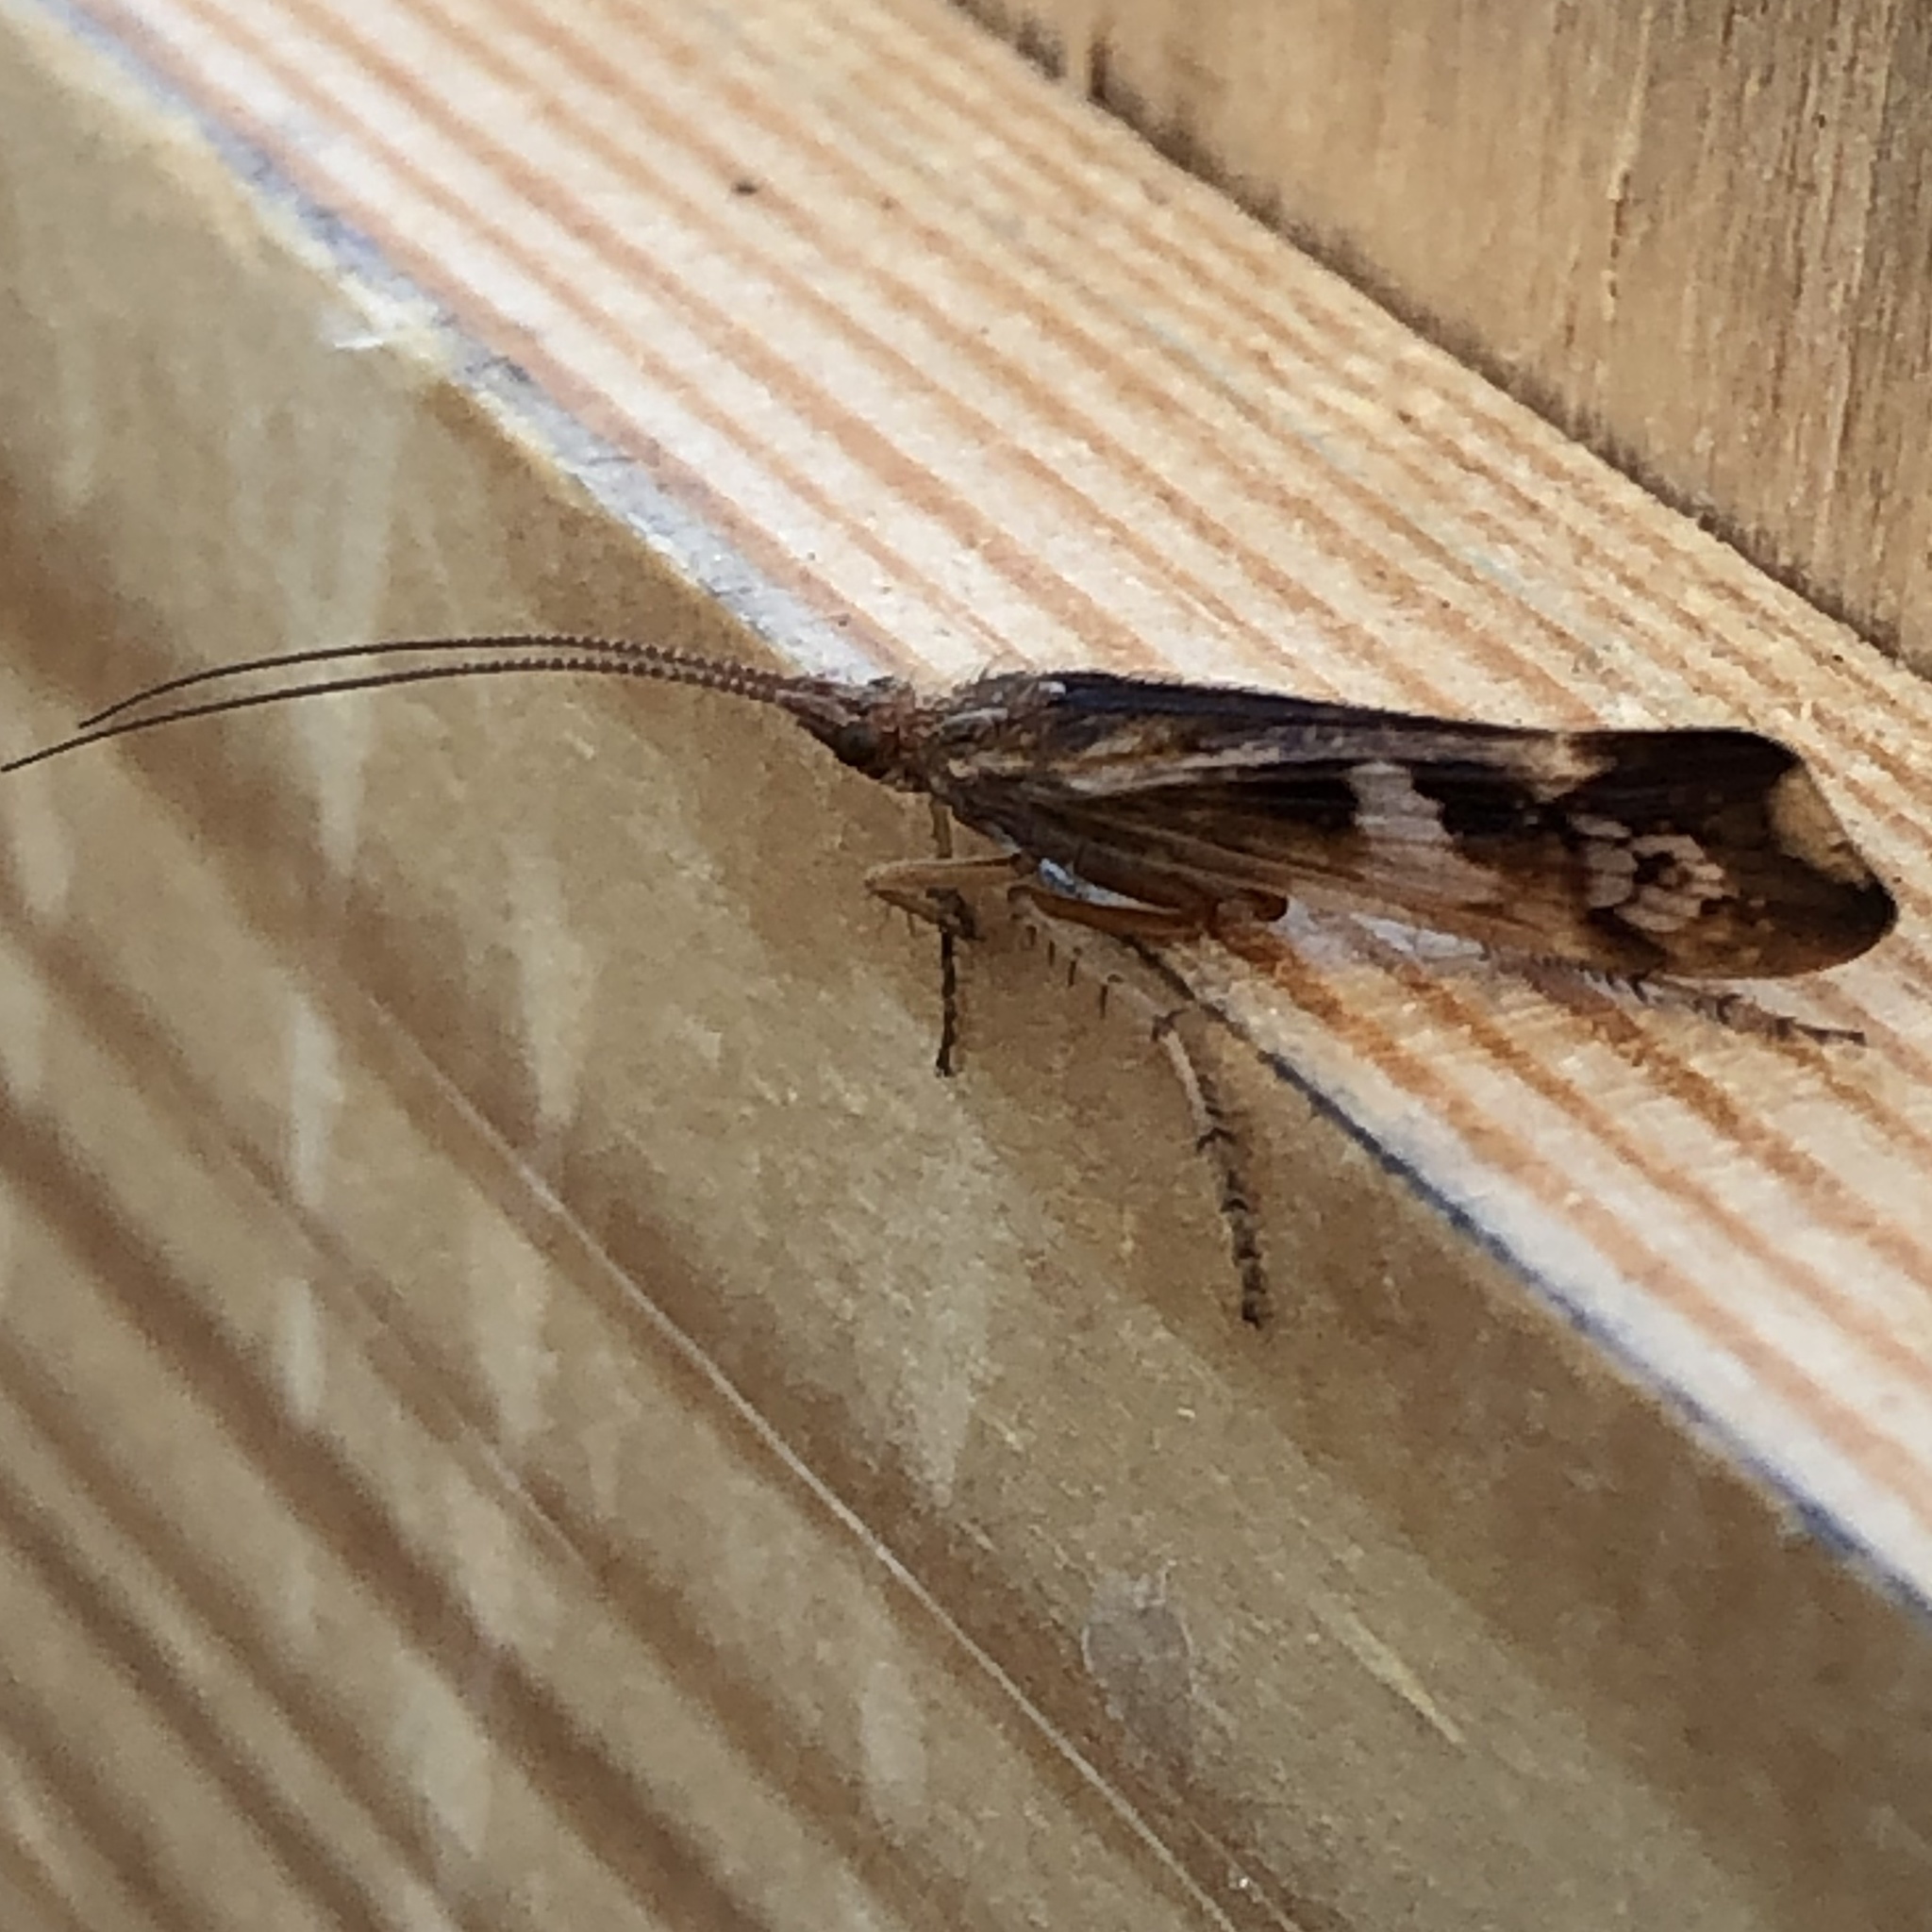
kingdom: Animalia
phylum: Arthropoda
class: Insecta
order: Trichoptera
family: Limnephilidae
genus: Limnephilus
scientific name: Limnephilus lunatus
